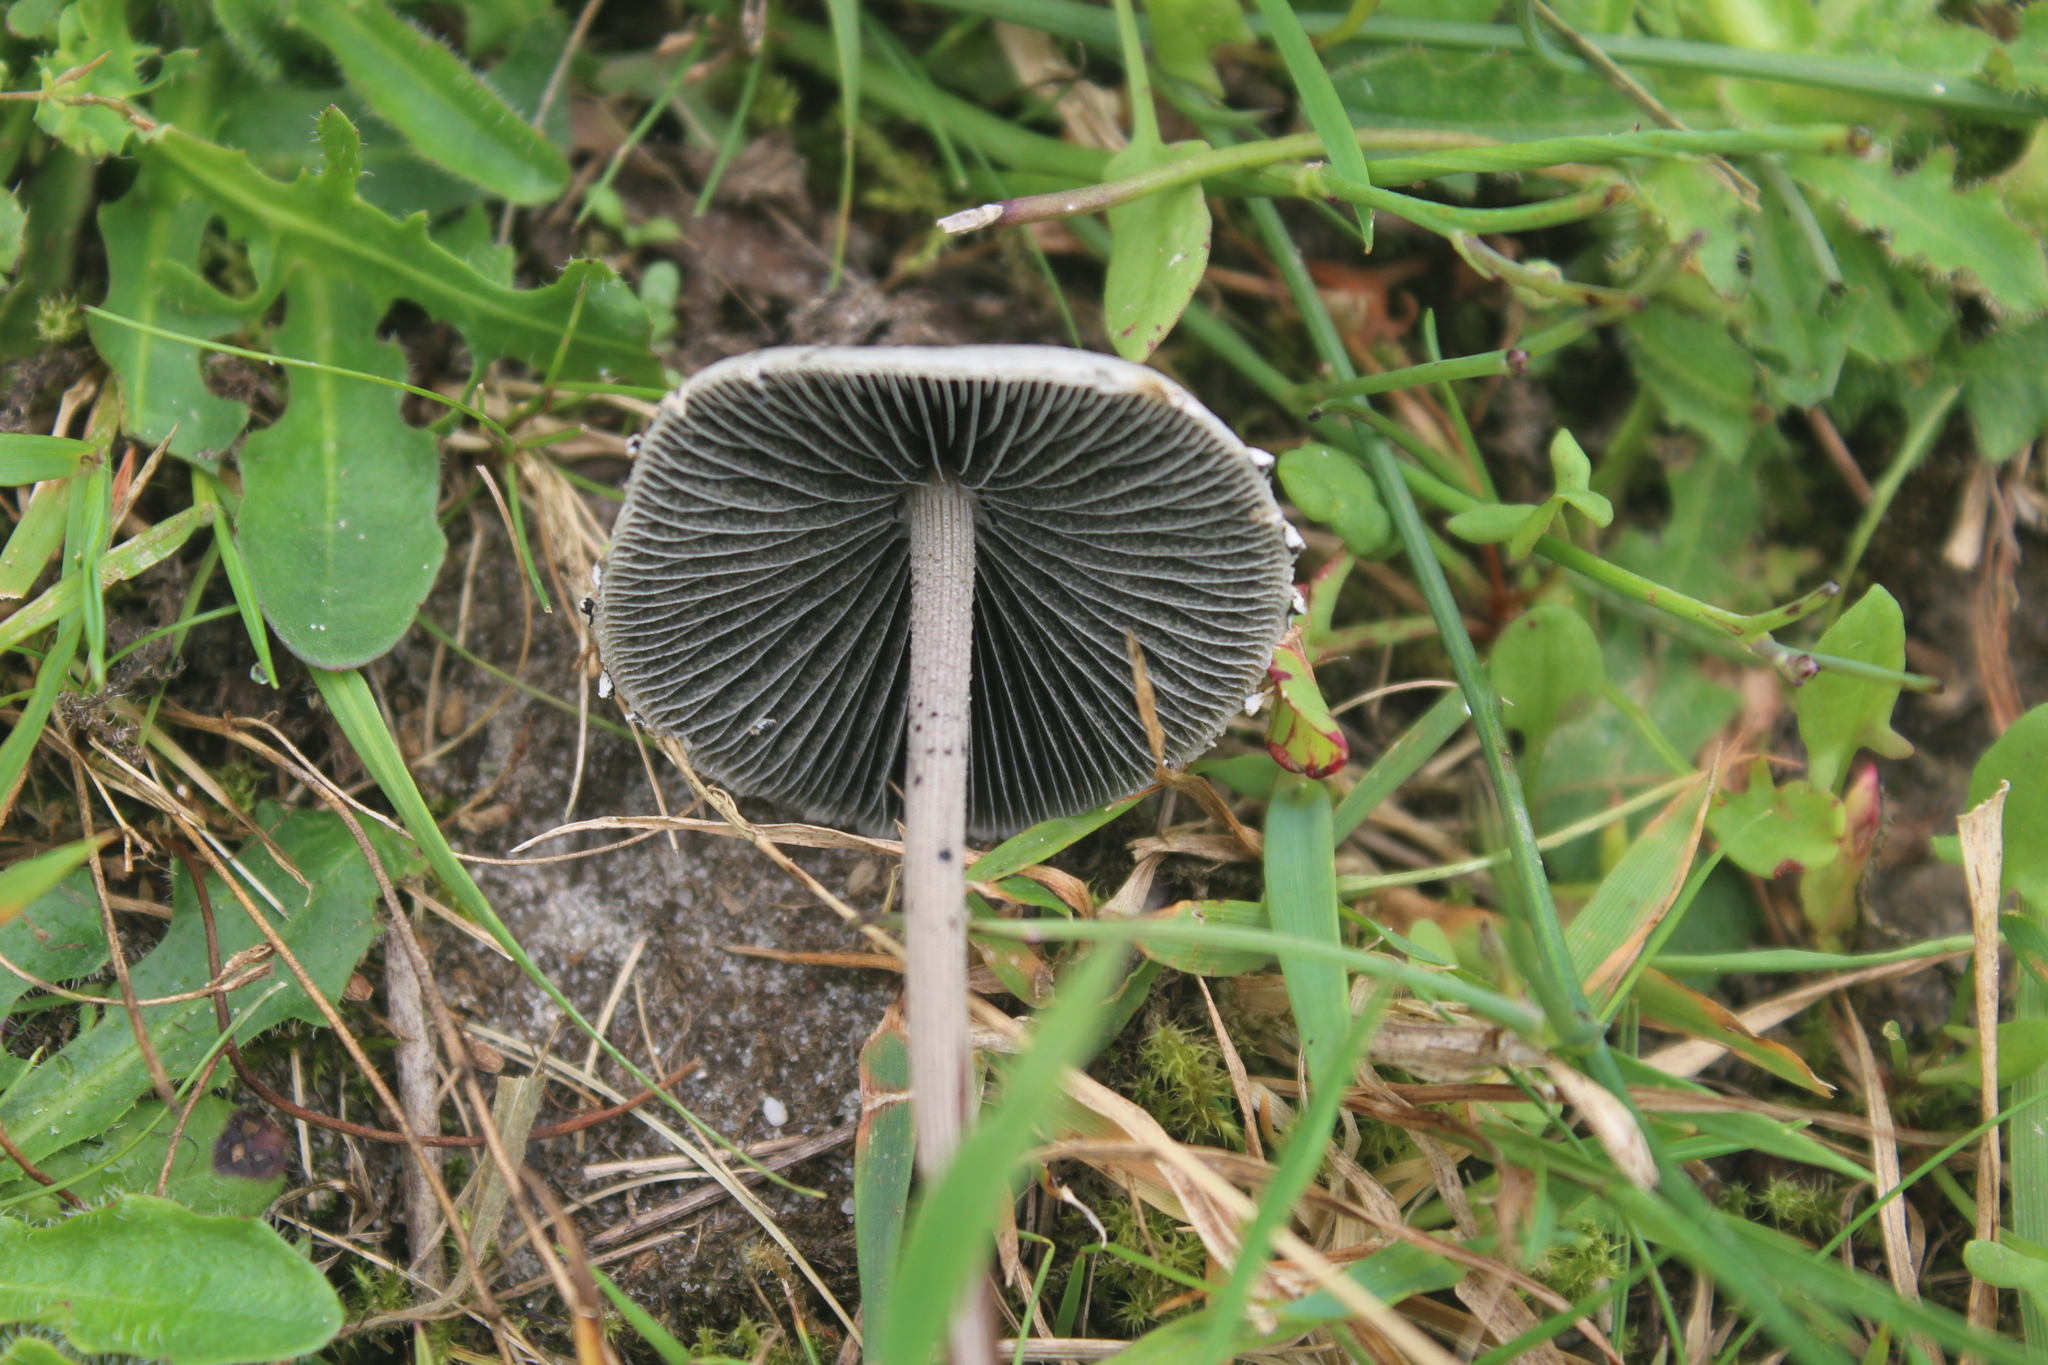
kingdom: Fungi
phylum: Basidiomycota
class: Agaricomycetes
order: Agaricales
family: Bolbitiaceae
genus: Panaeolus
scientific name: Panaeolus papilionaceus
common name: Petticoat mottlegill
